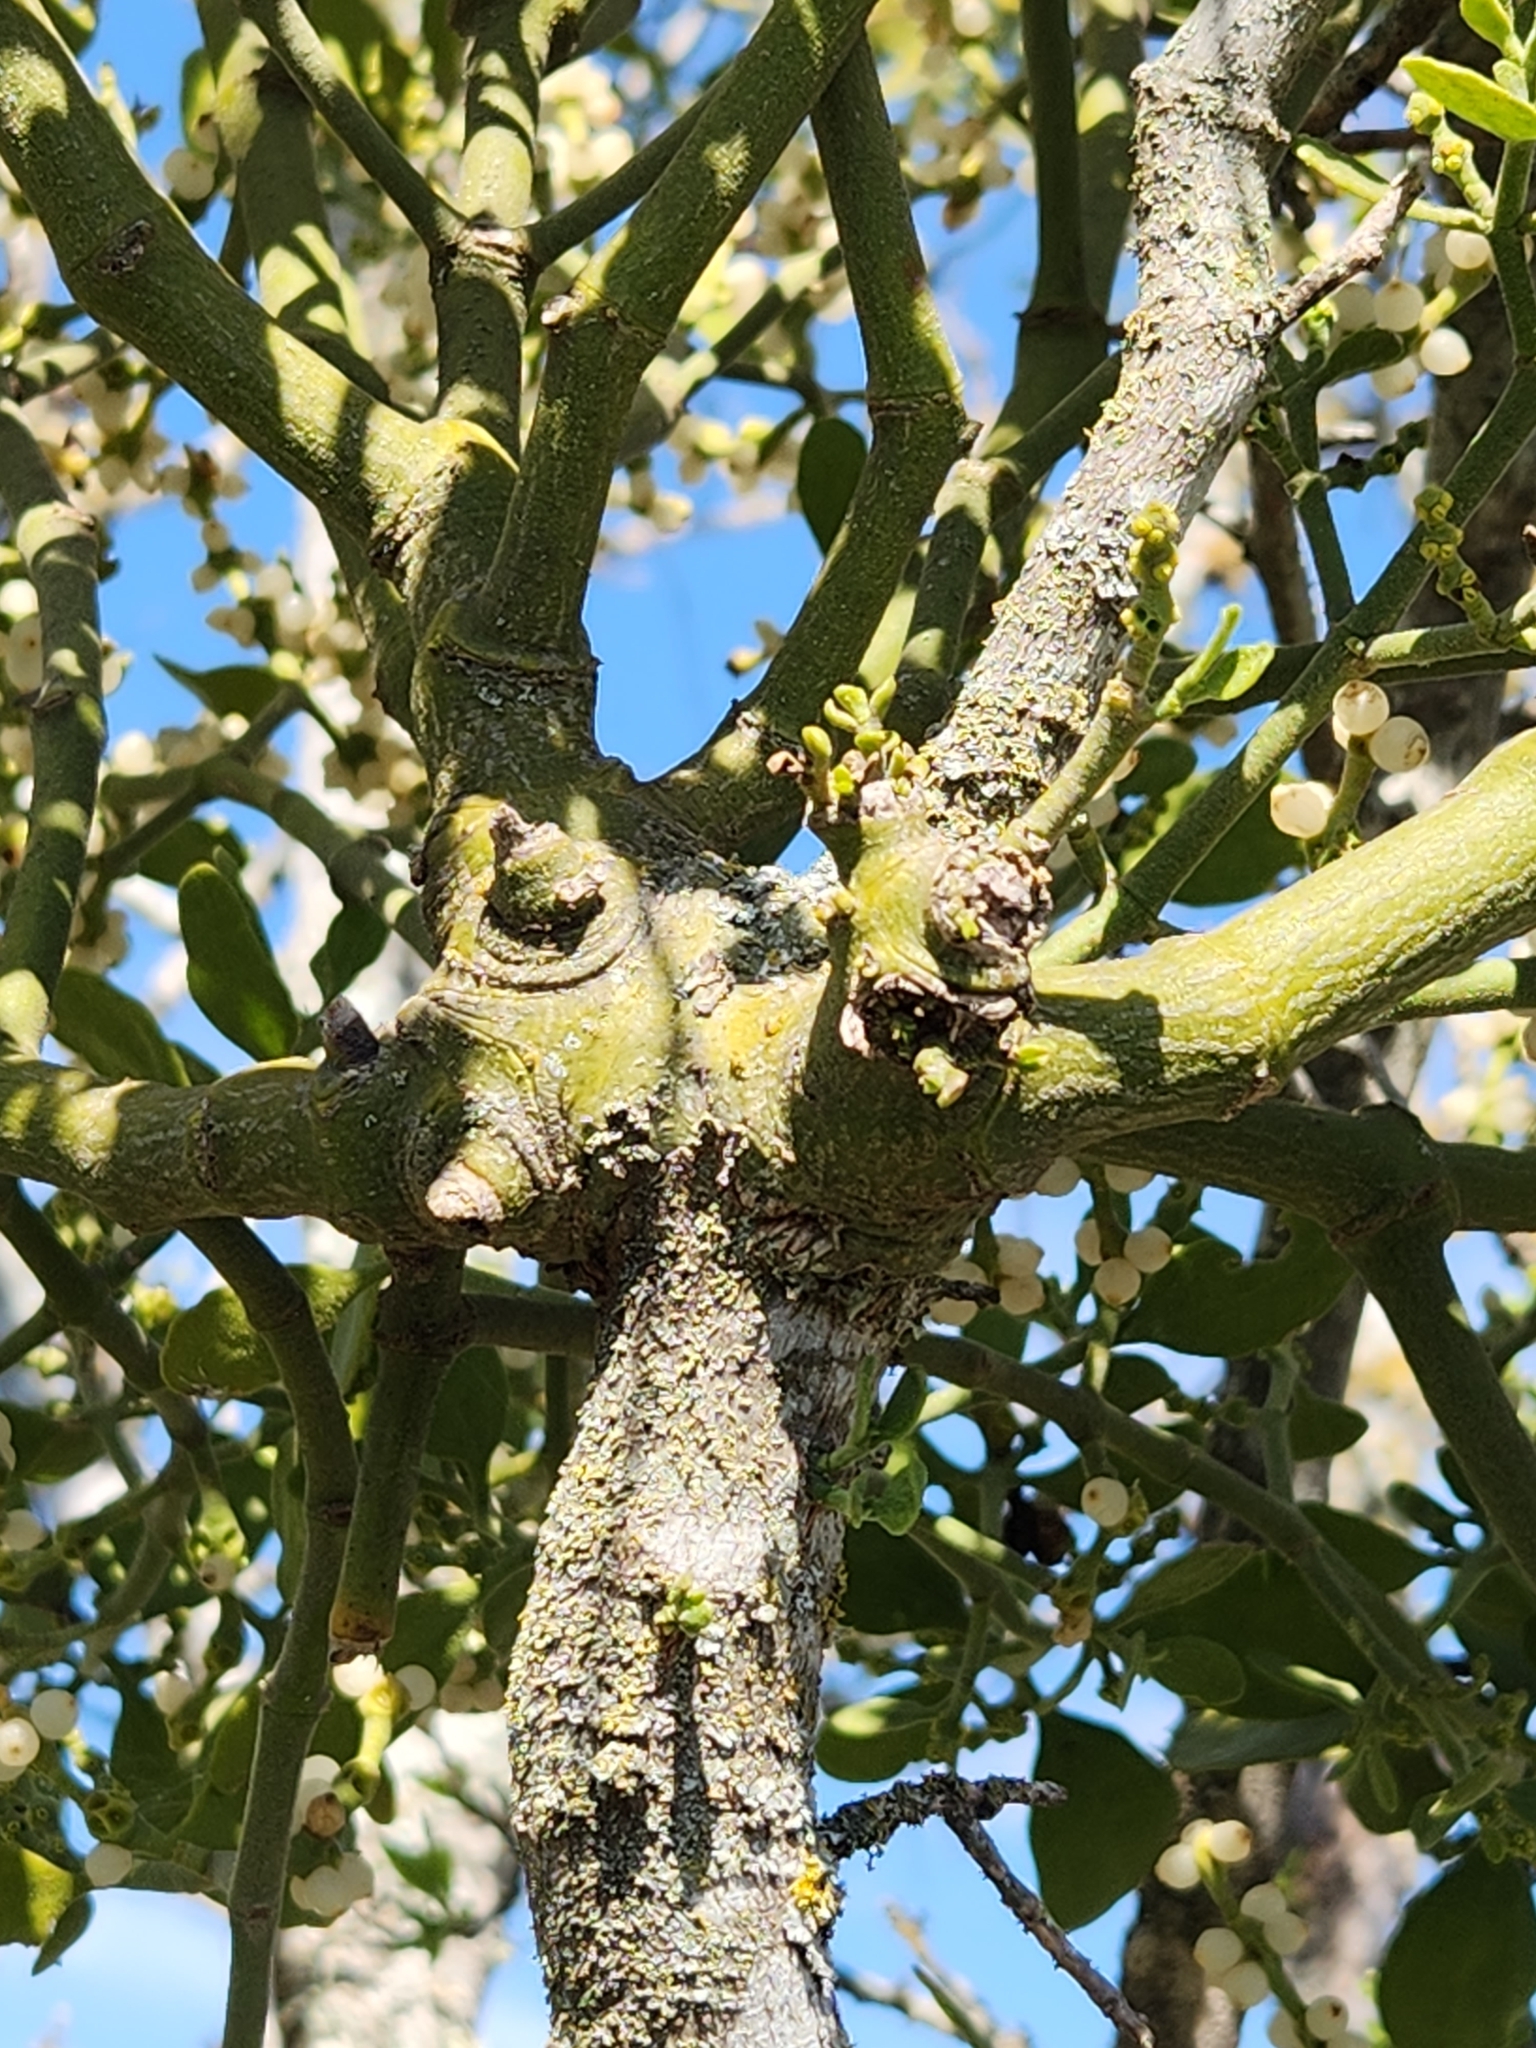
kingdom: Plantae
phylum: Tracheophyta
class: Magnoliopsida
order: Santalales
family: Viscaceae
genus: Phoradendron
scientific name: Phoradendron leucarpum
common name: Pacific mistletoe
